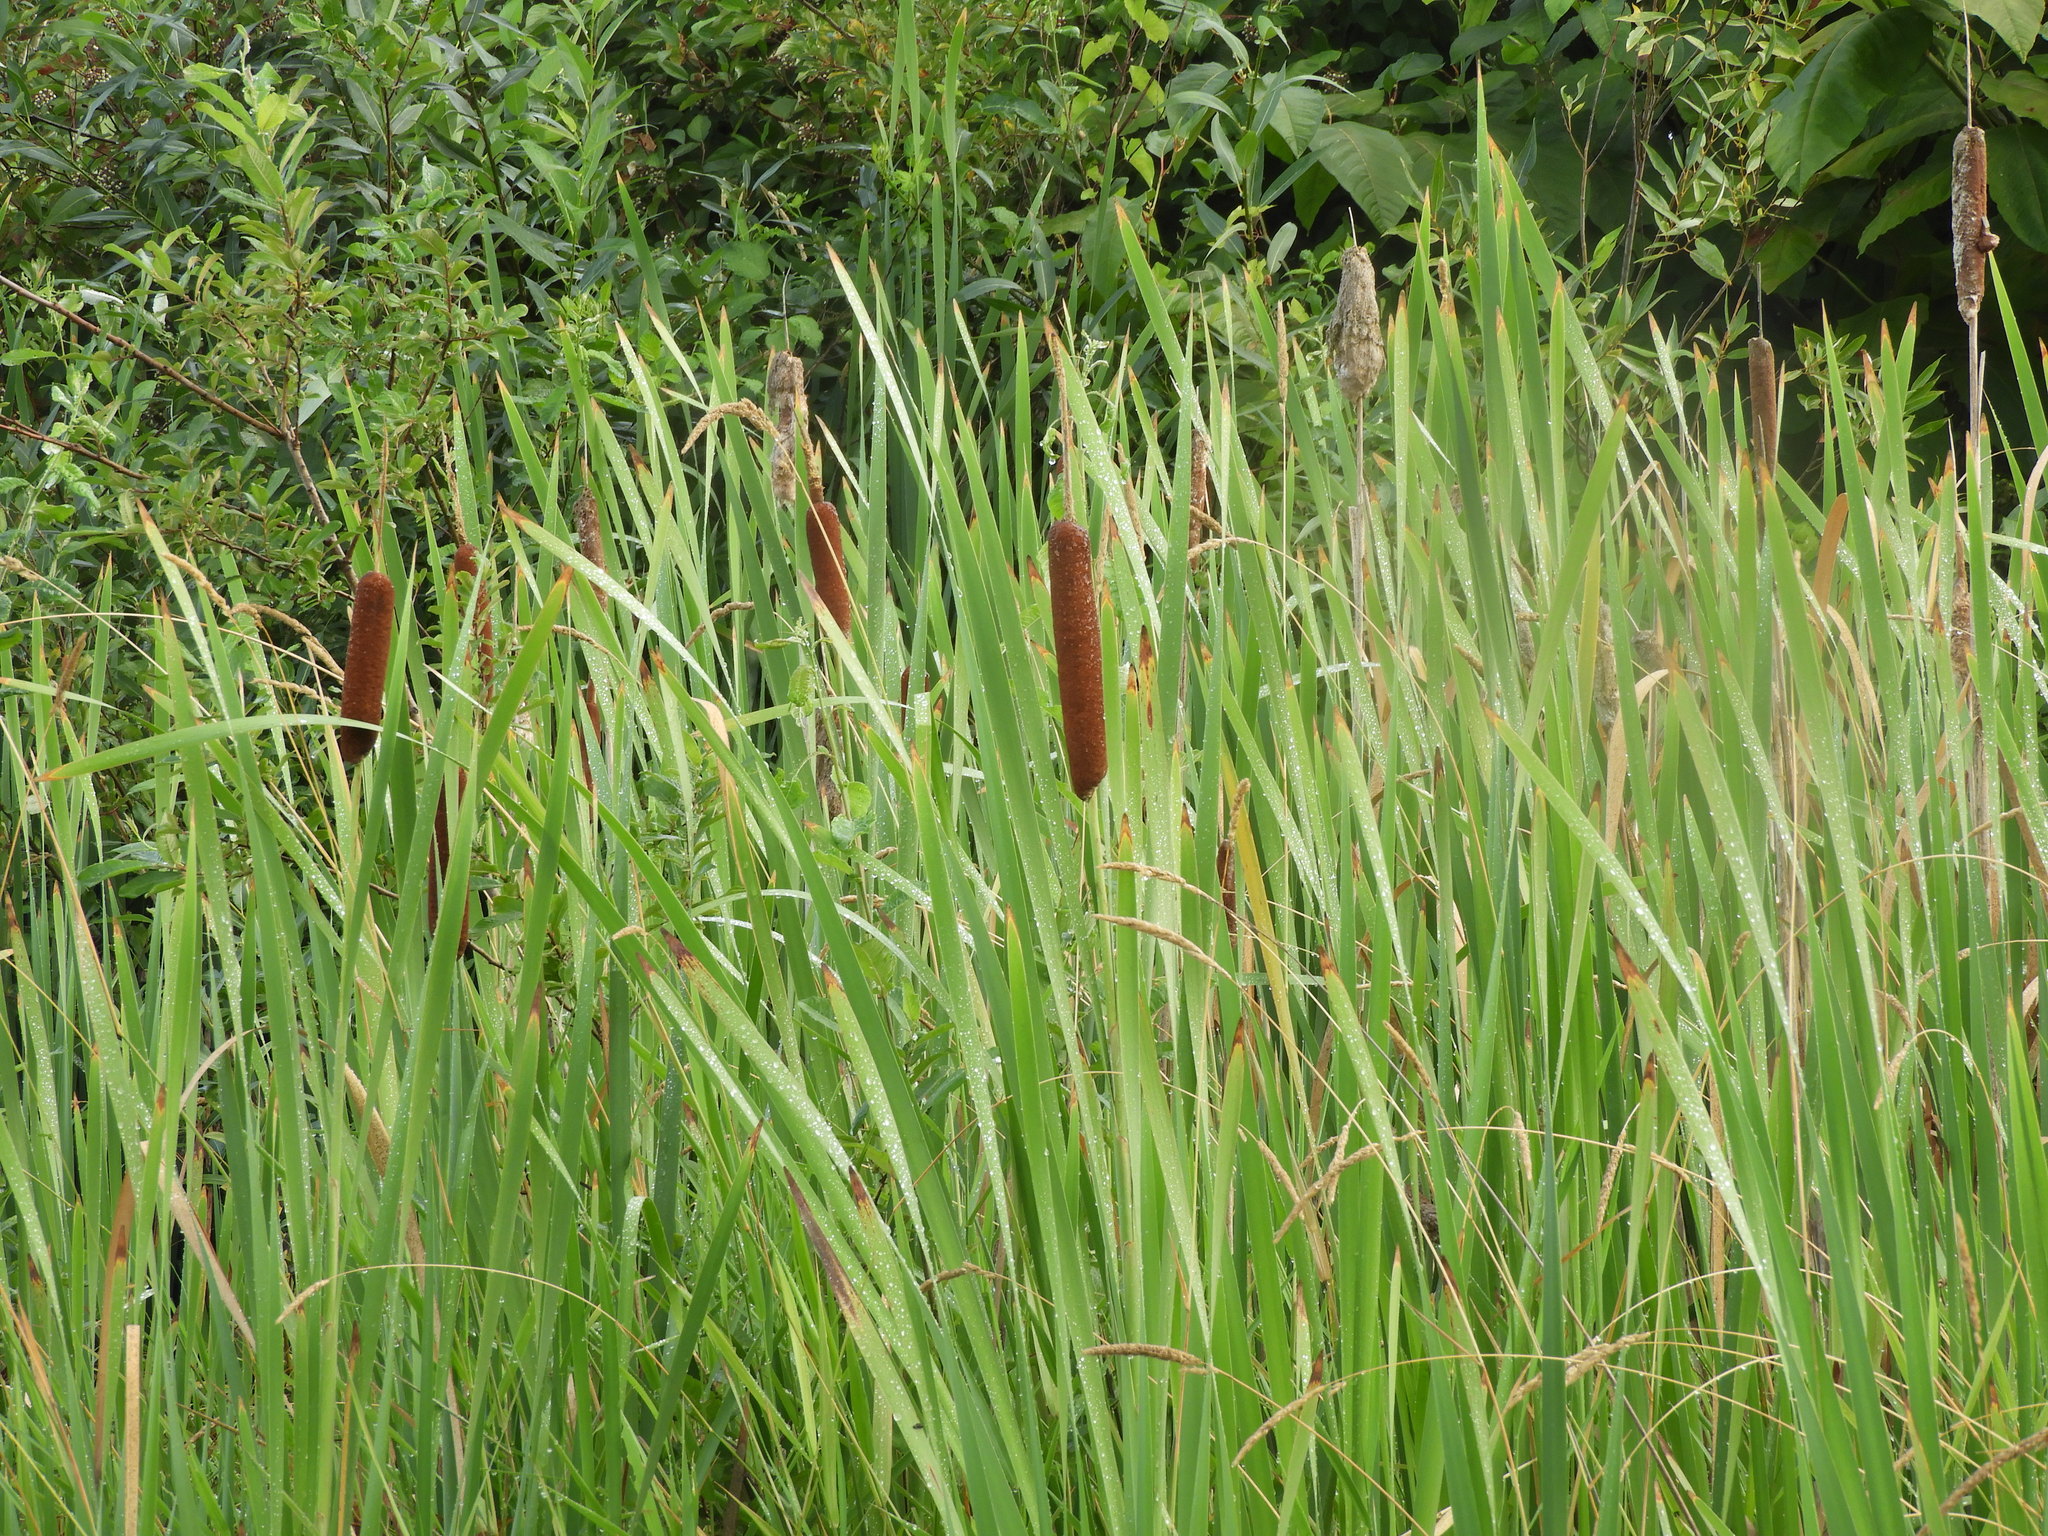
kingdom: Plantae
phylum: Tracheophyta
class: Liliopsida
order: Poales
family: Typhaceae
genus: Typha
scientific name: Typha latifolia
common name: Broadleaf cattail
